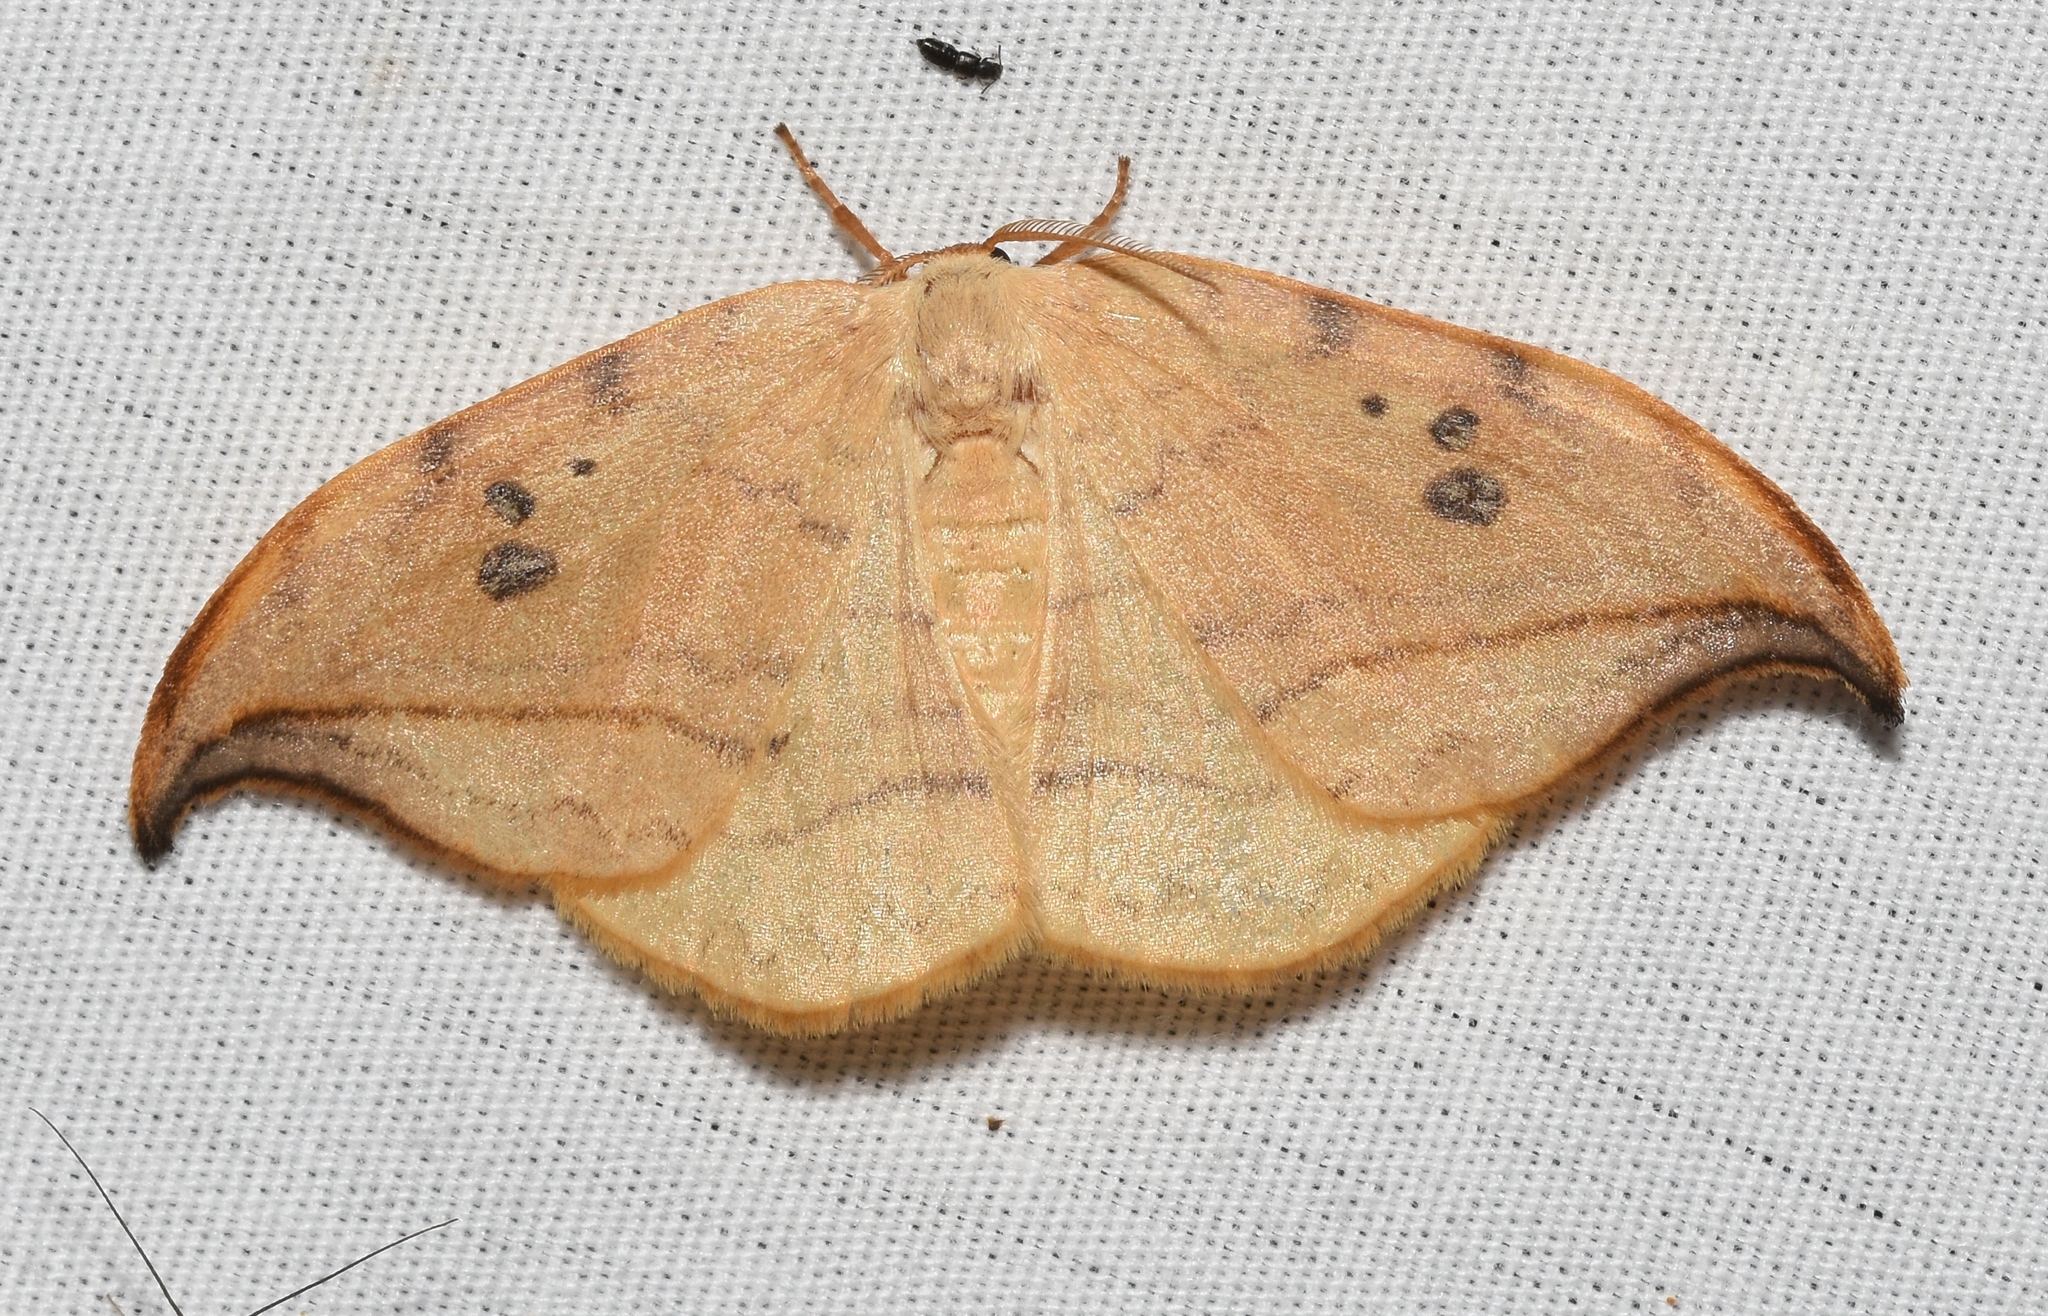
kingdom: Animalia
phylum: Arthropoda
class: Insecta
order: Lepidoptera
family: Drepanidae
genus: Drepana
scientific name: Drepana arcuata
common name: Arched hooktip moth
